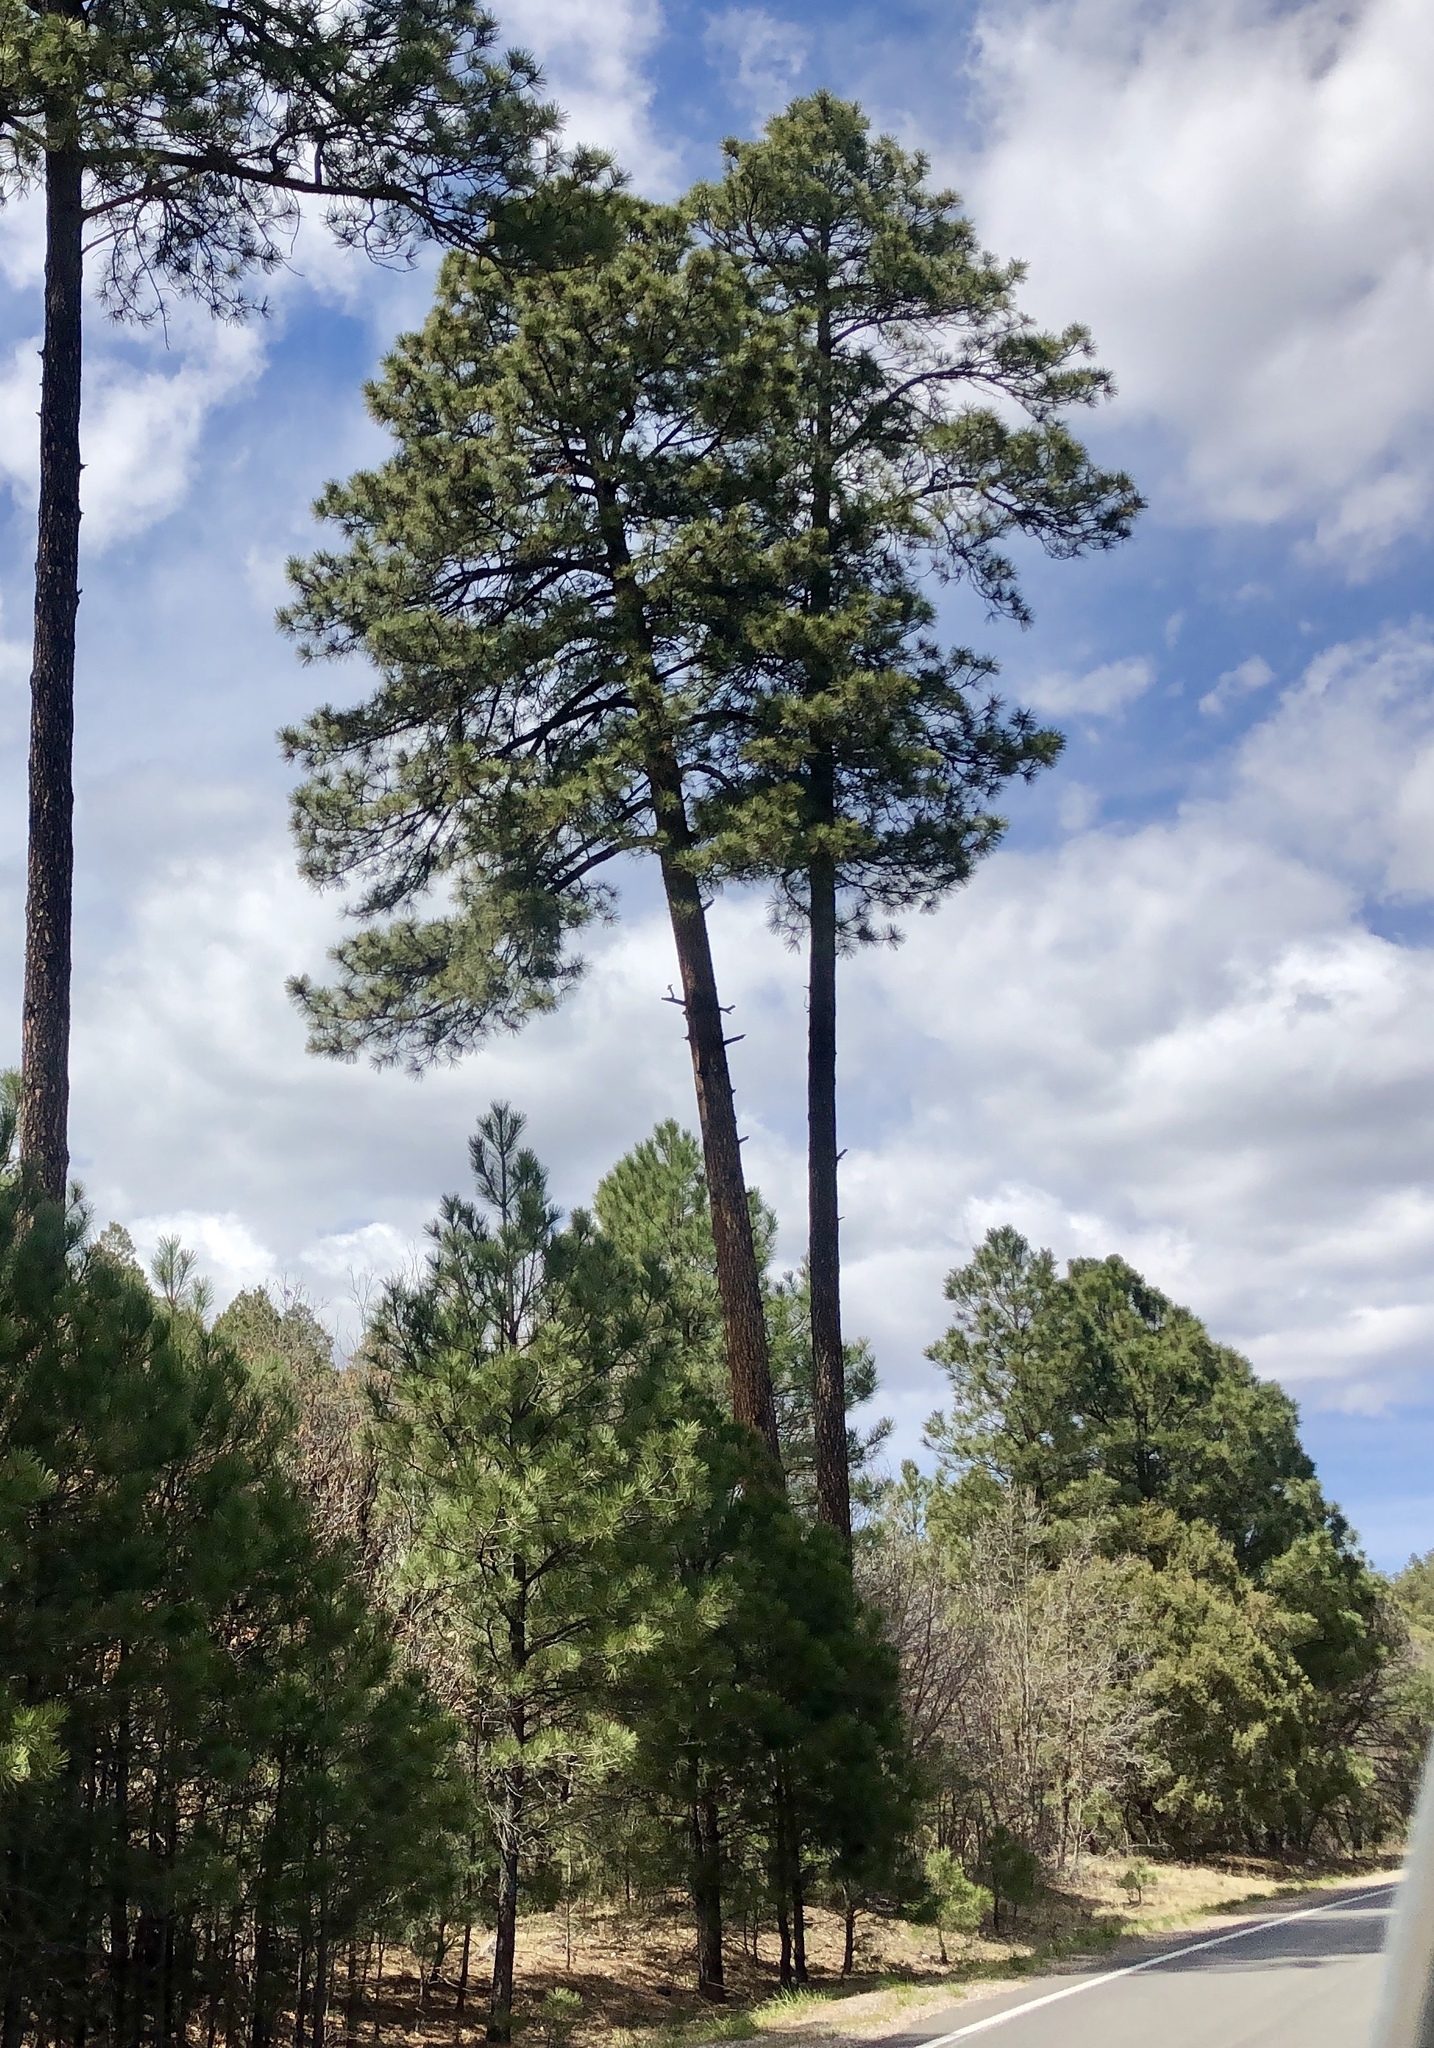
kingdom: Plantae
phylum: Tracheophyta
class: Pinopsida
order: Pinales
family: Pinaceae
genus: Pinus
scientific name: Pinus ponderosa
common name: Western yellow-pine
